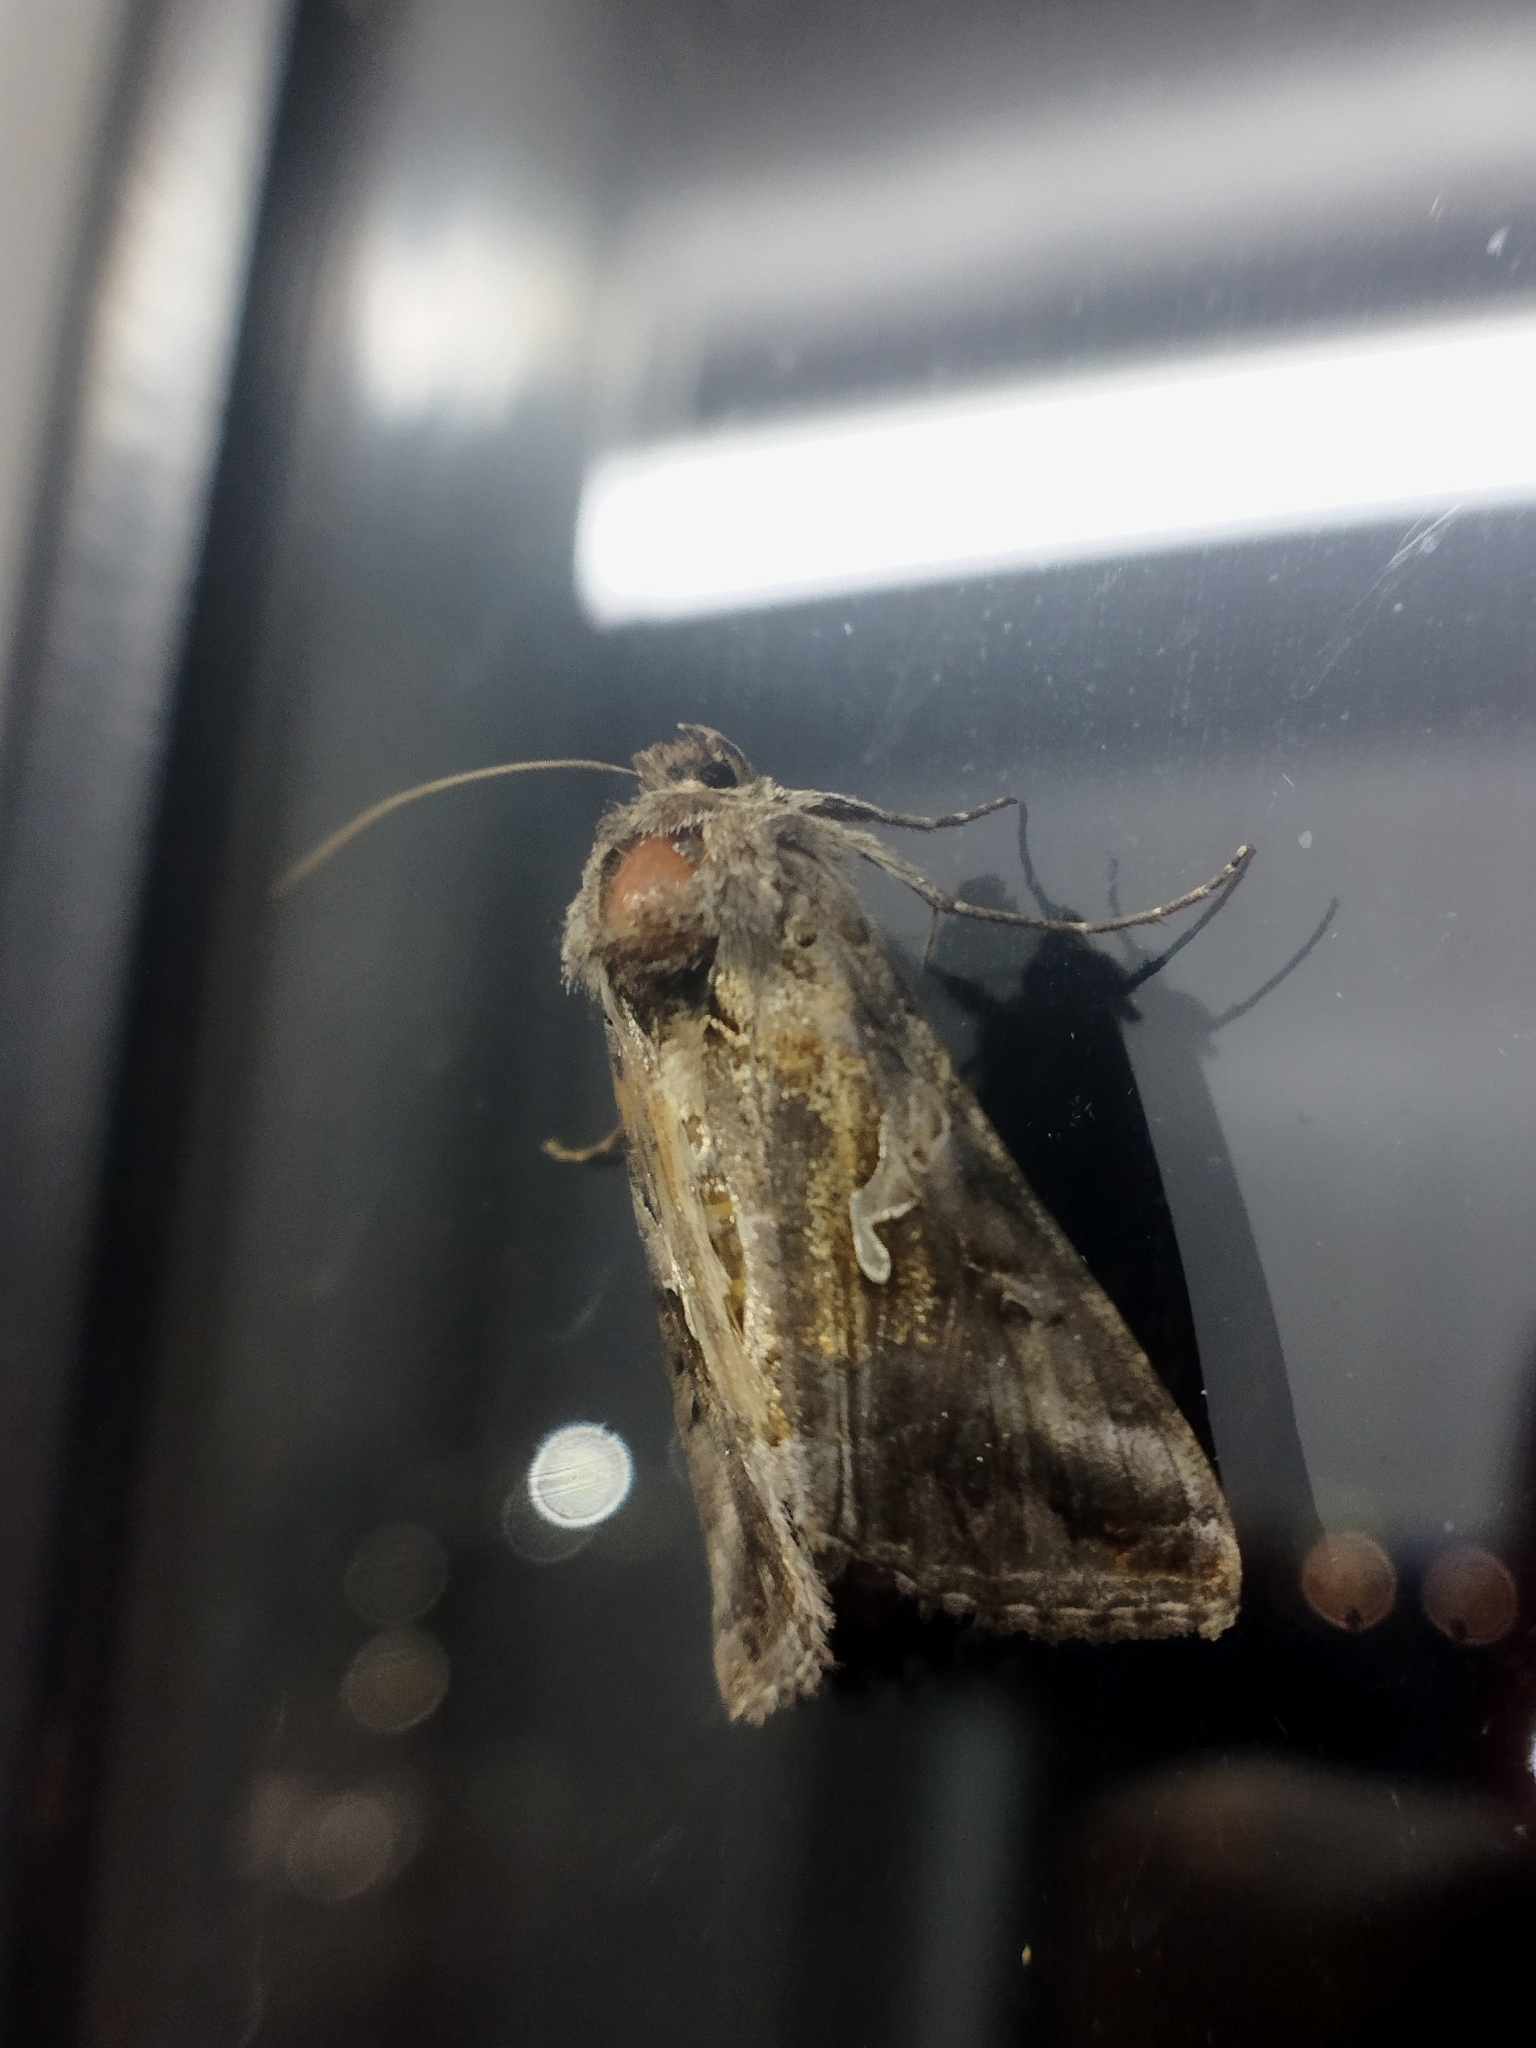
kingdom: Animalia
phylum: Arthropoda
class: Insecta
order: Lepidoptera
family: Noctuidae
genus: Autographa
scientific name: Autographa gamma
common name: Silver y
